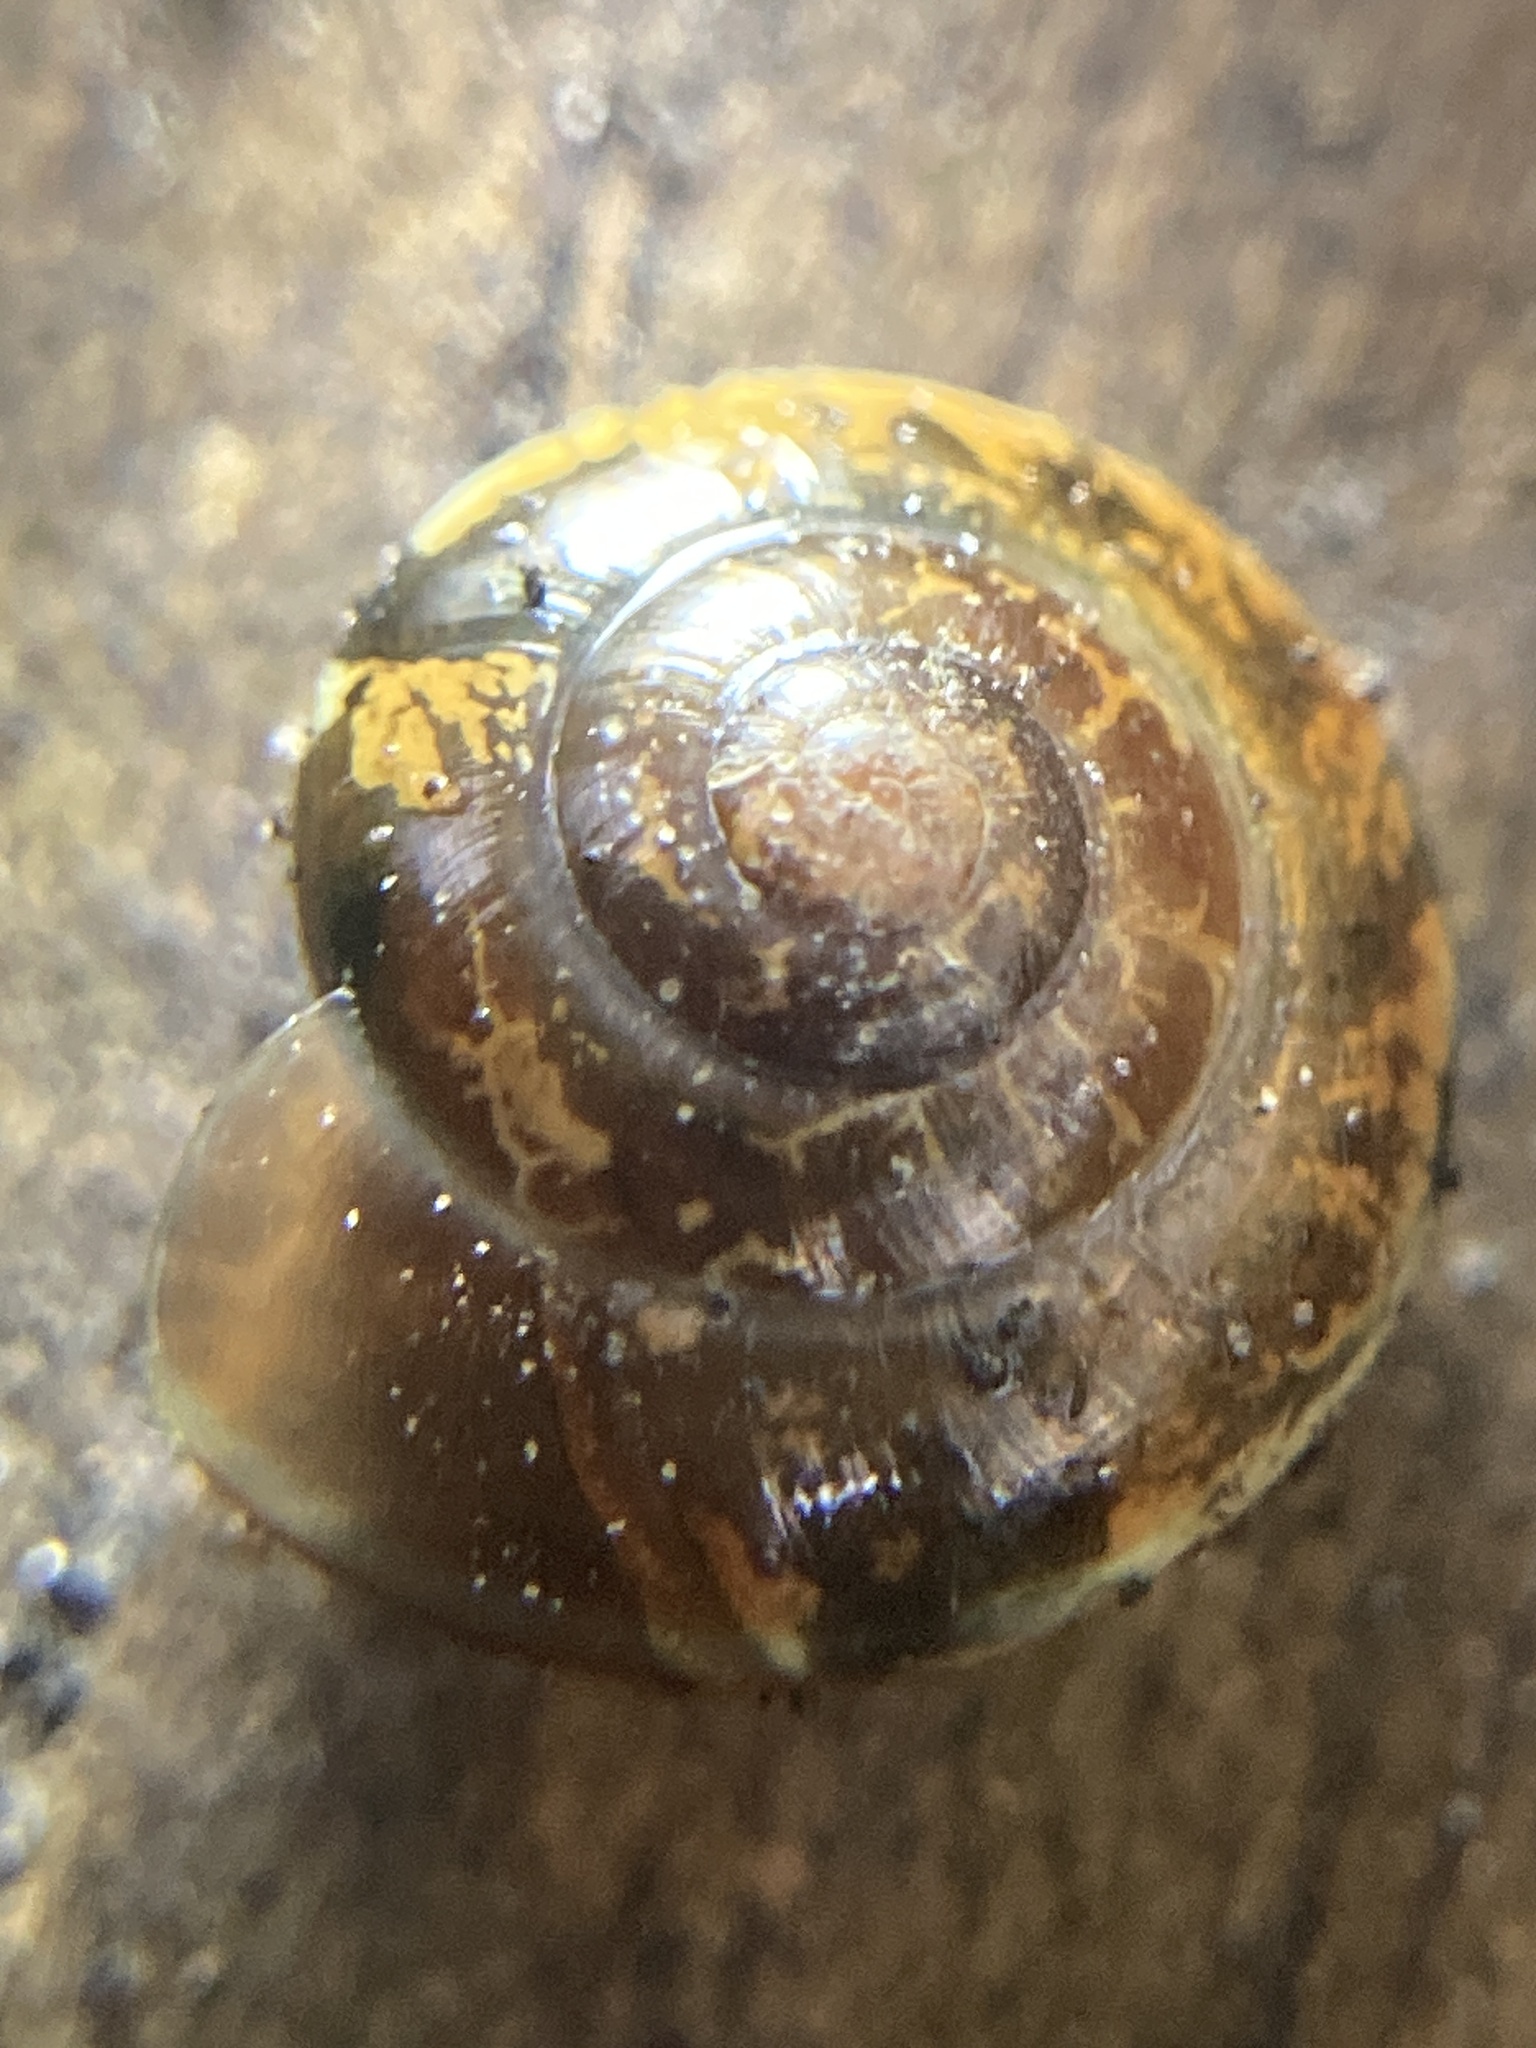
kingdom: Animalia
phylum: Mollusca
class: Gastropoda
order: Stylommatophora
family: Helicarionidae
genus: Nitor
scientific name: Nitor circumcinctus
